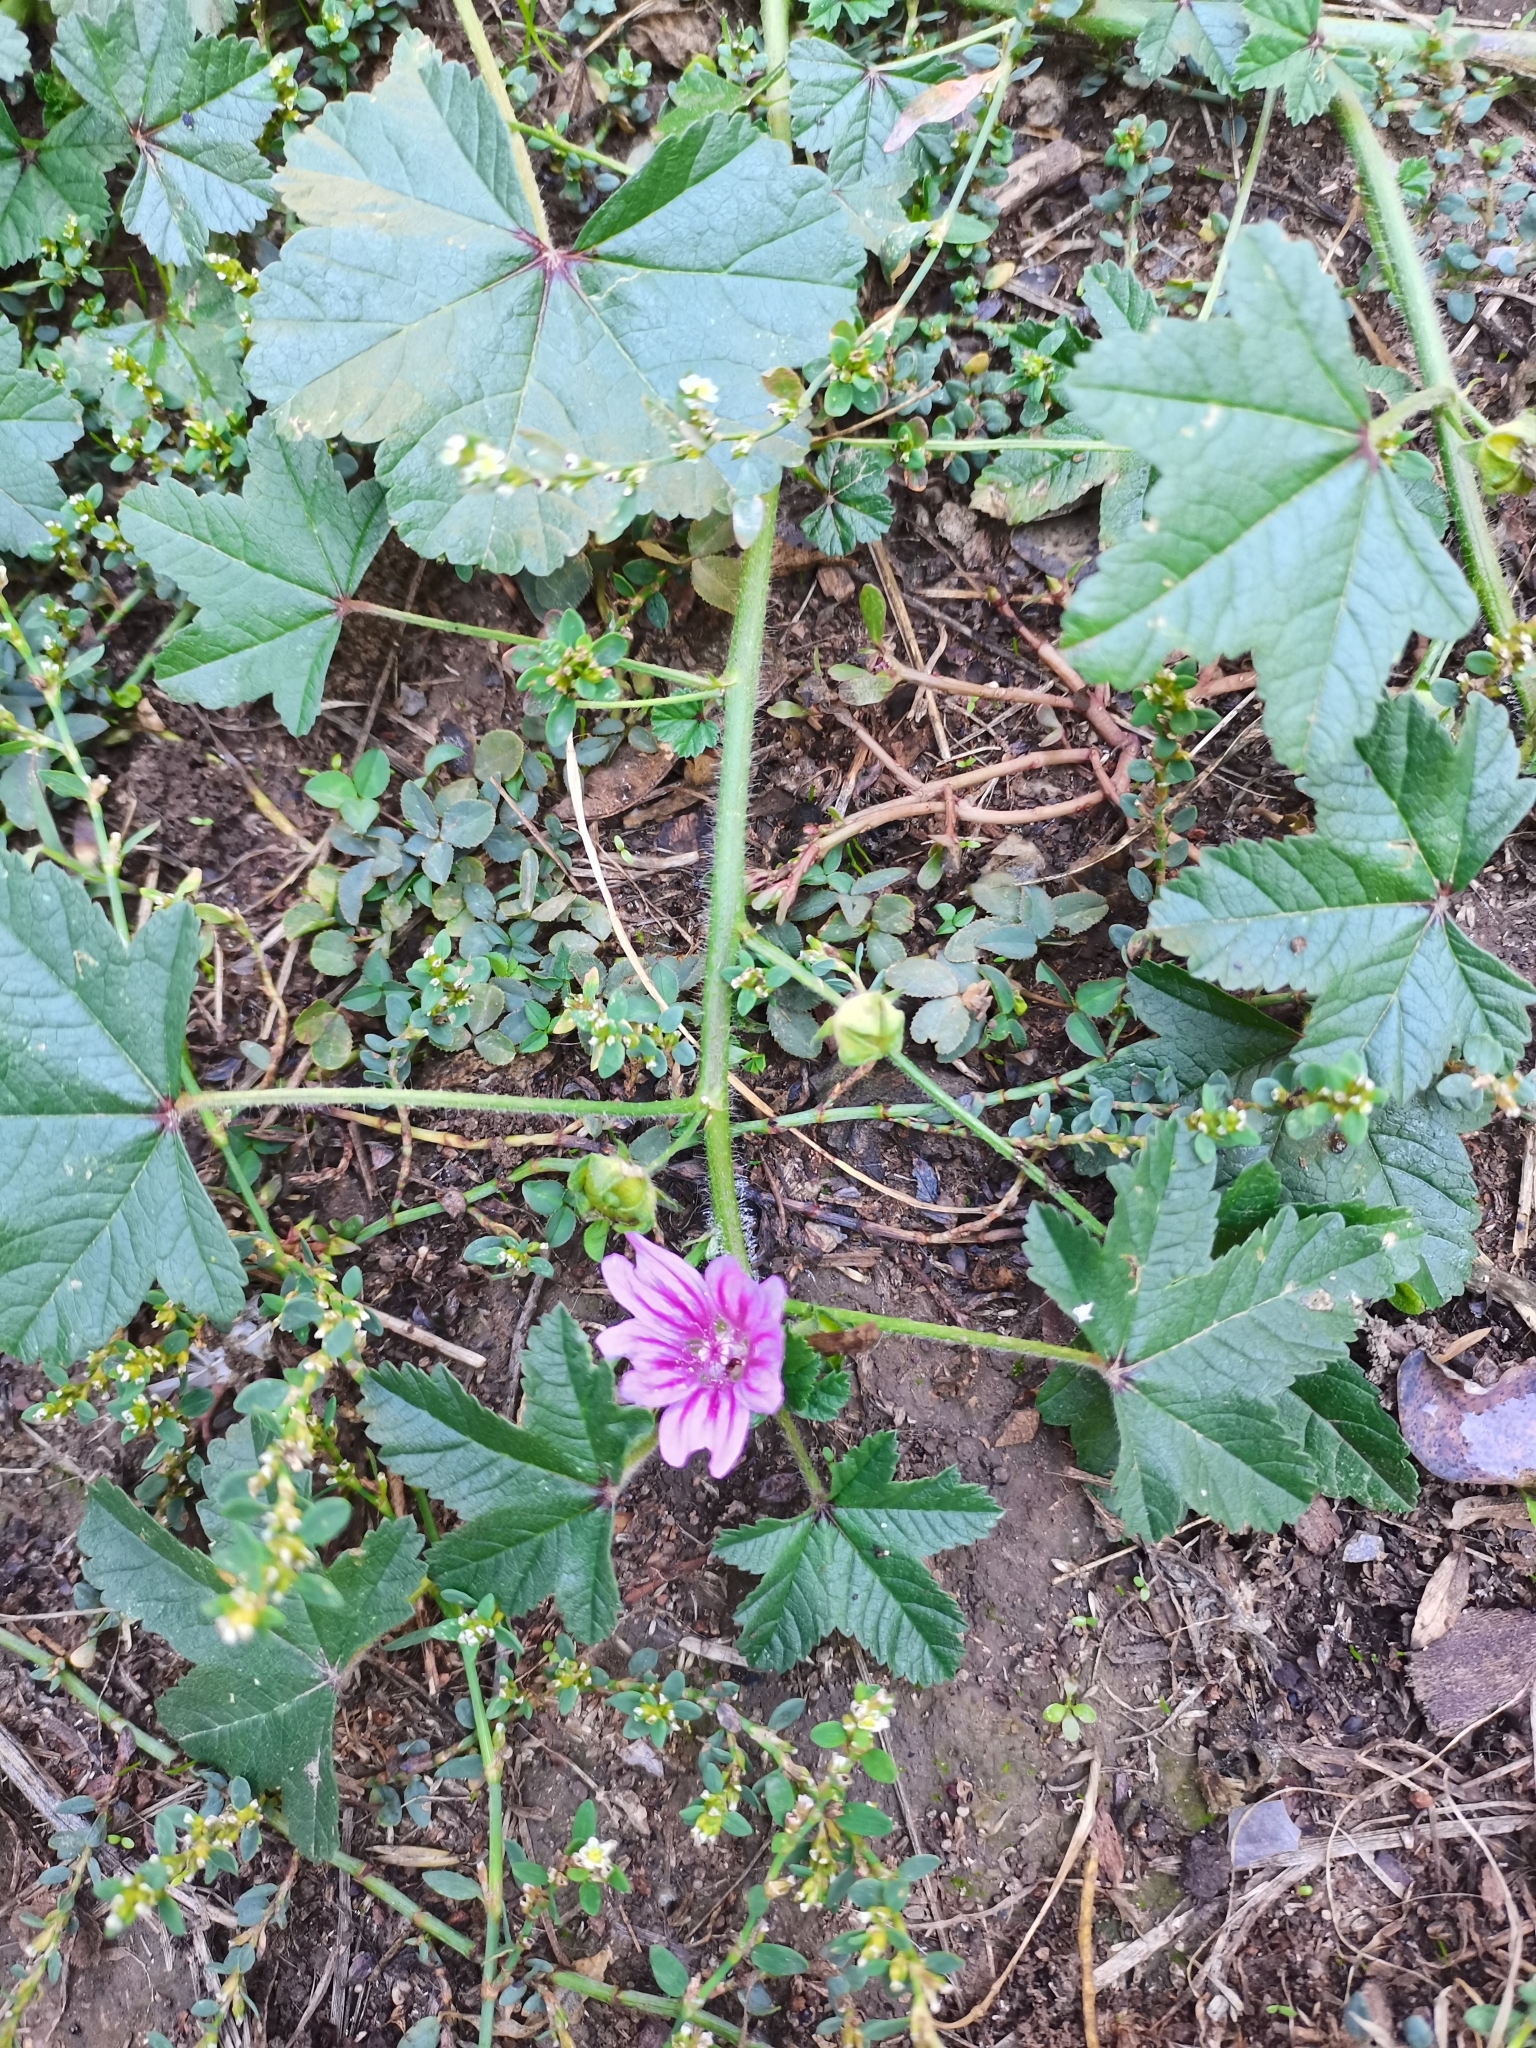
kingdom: Plantae
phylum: Tracheophyta
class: Magnoliopsida
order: Malvales
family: Malvaceae
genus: Malva
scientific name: Malva sylvestris
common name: Common mallow
